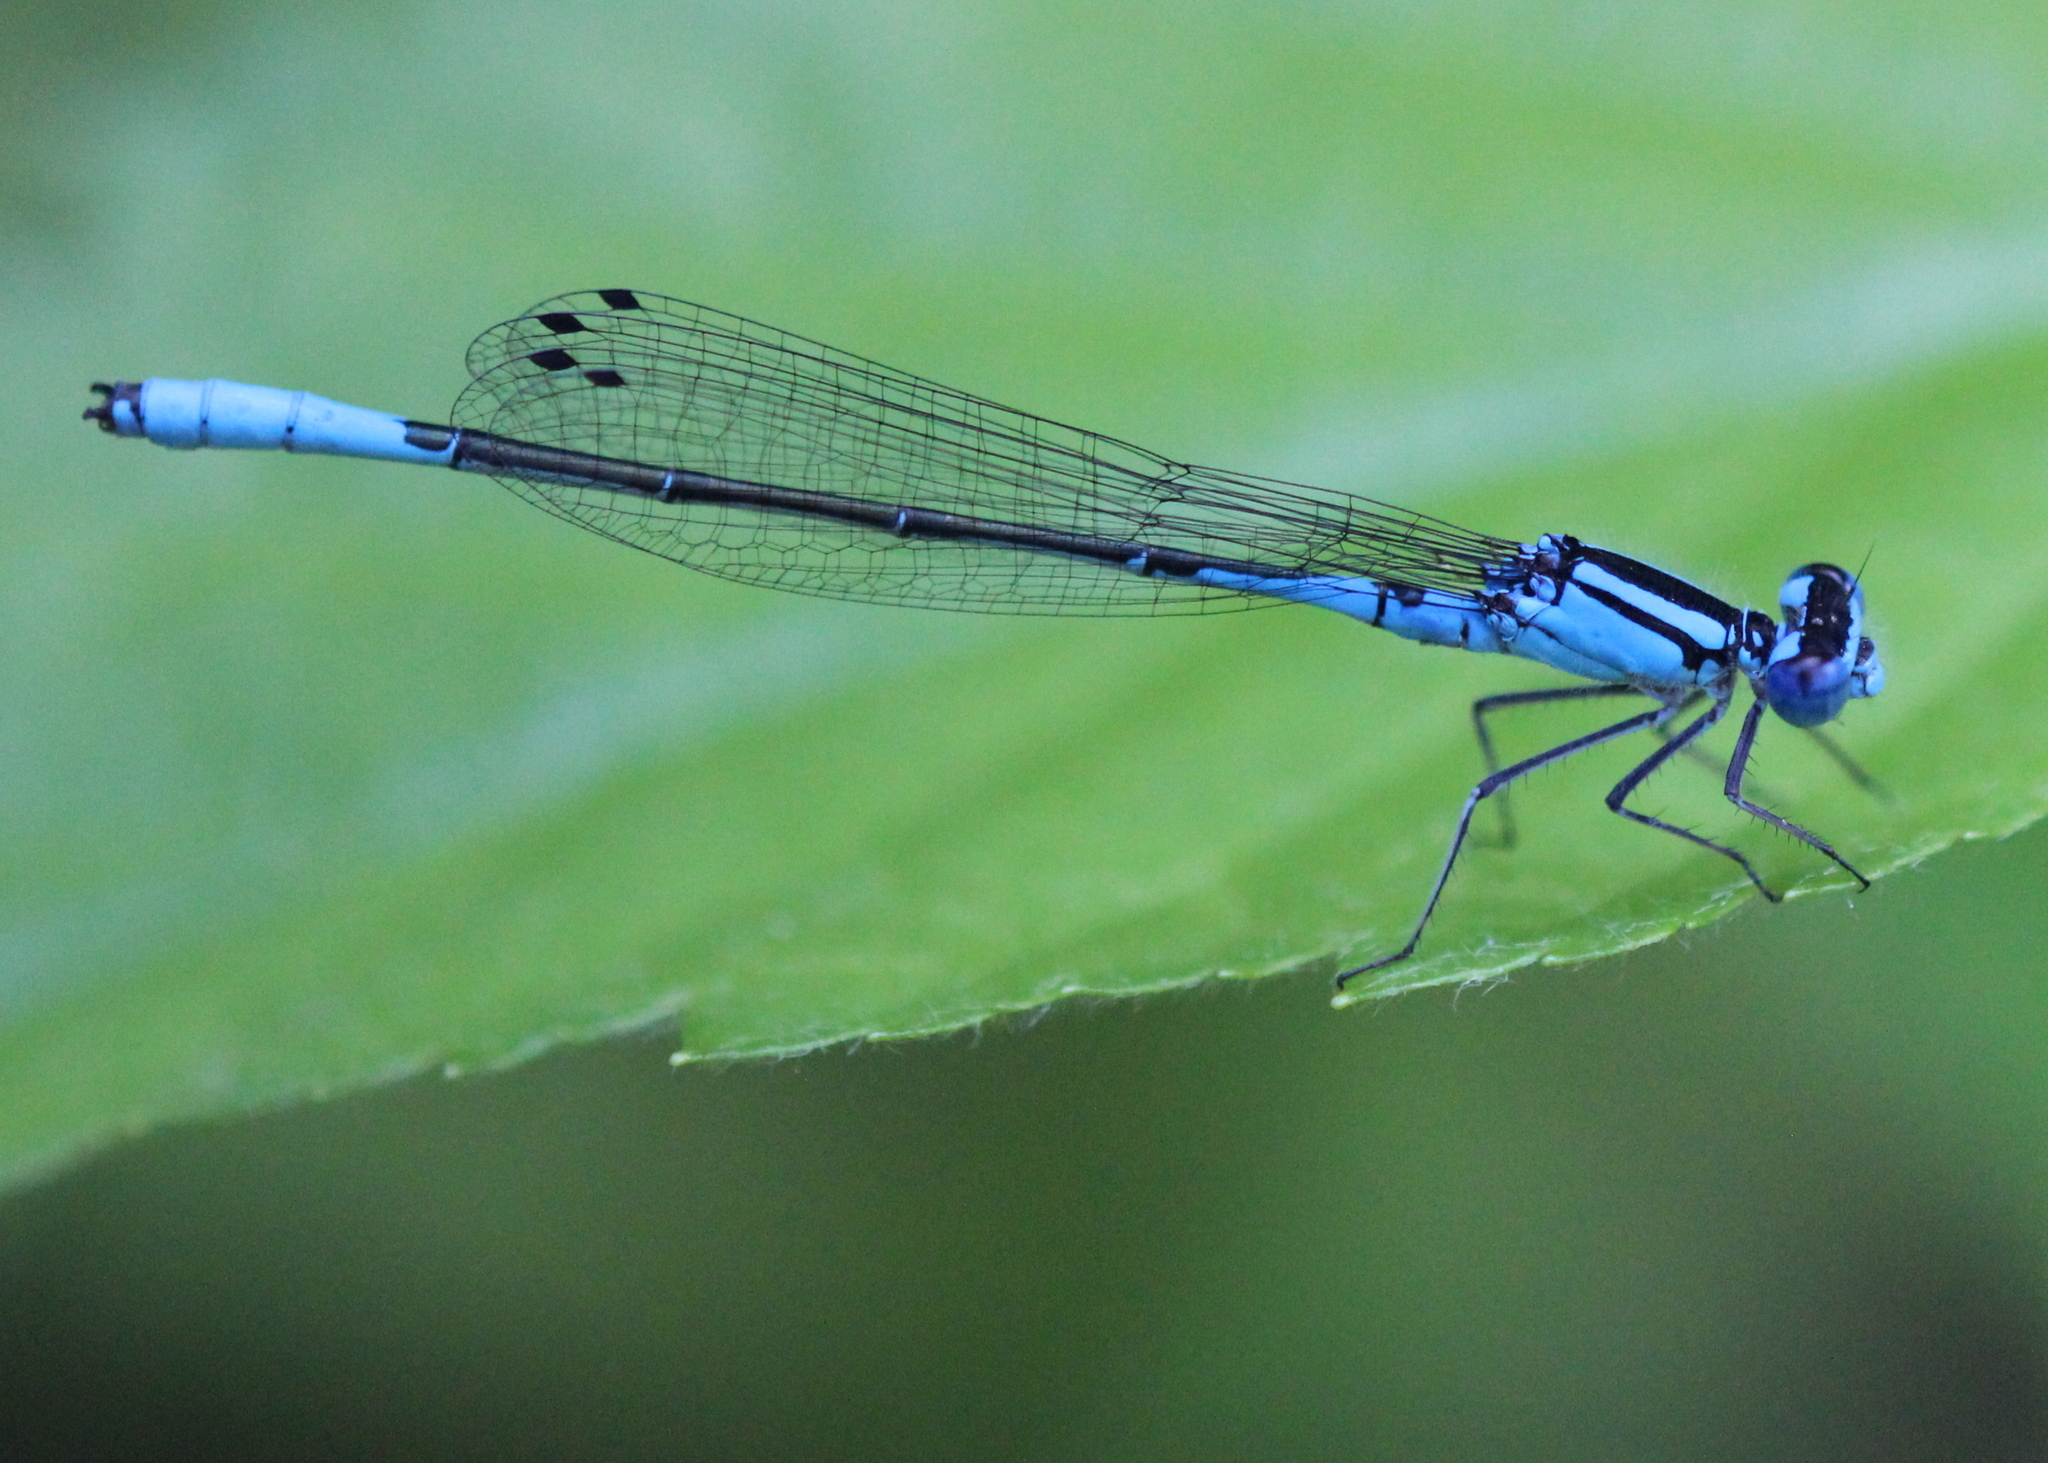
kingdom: Animalia
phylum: Arthropoda
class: Insecta
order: Odonata
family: Coenagrionidae
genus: Enallagma
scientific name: Enallagma aspersum
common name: Azure bluet
